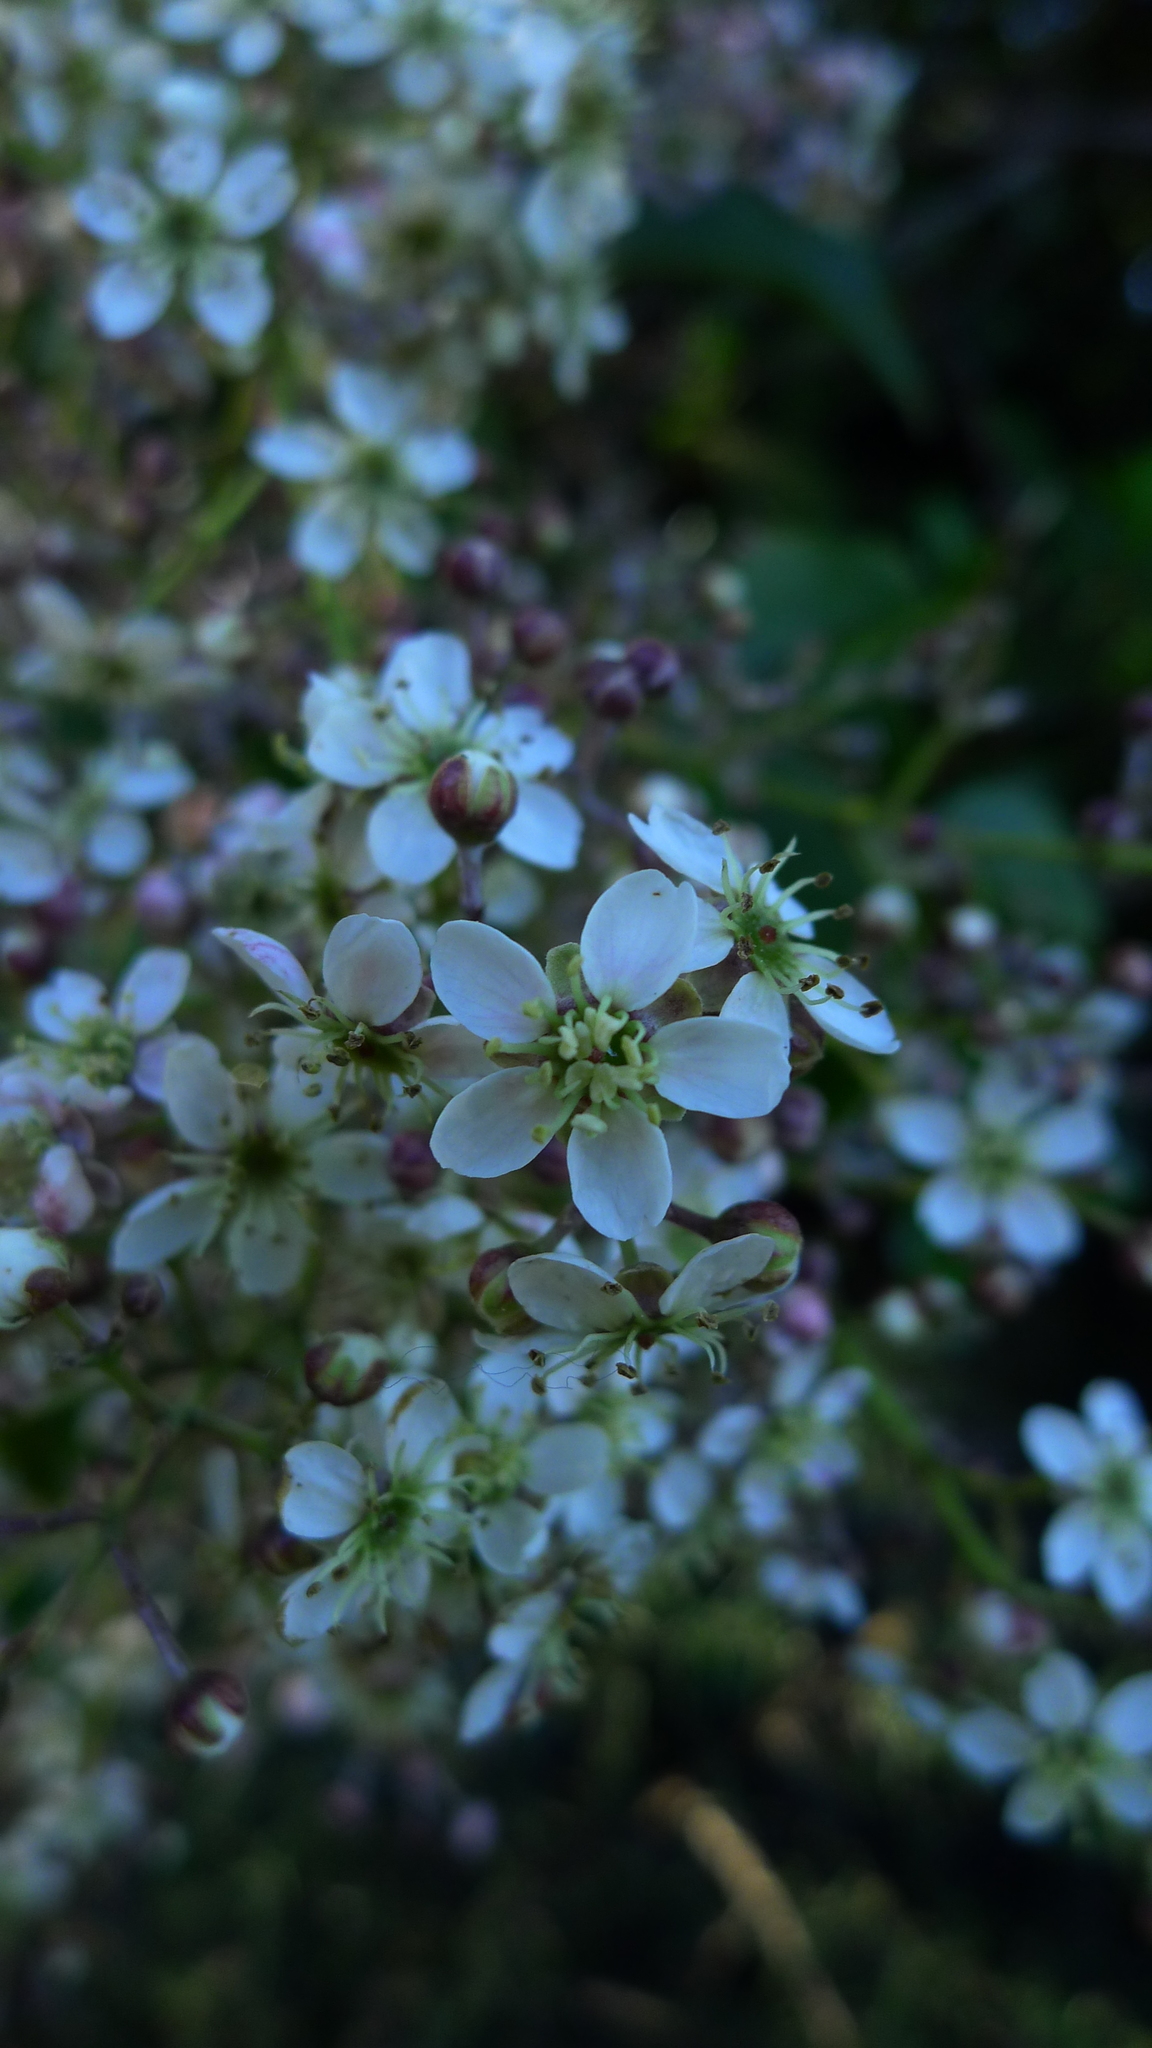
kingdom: Plantae
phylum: Tracheophyta
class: Magnoliopsida
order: Rosales
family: Rosaceae
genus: Rubus
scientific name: Rubus cissoides
